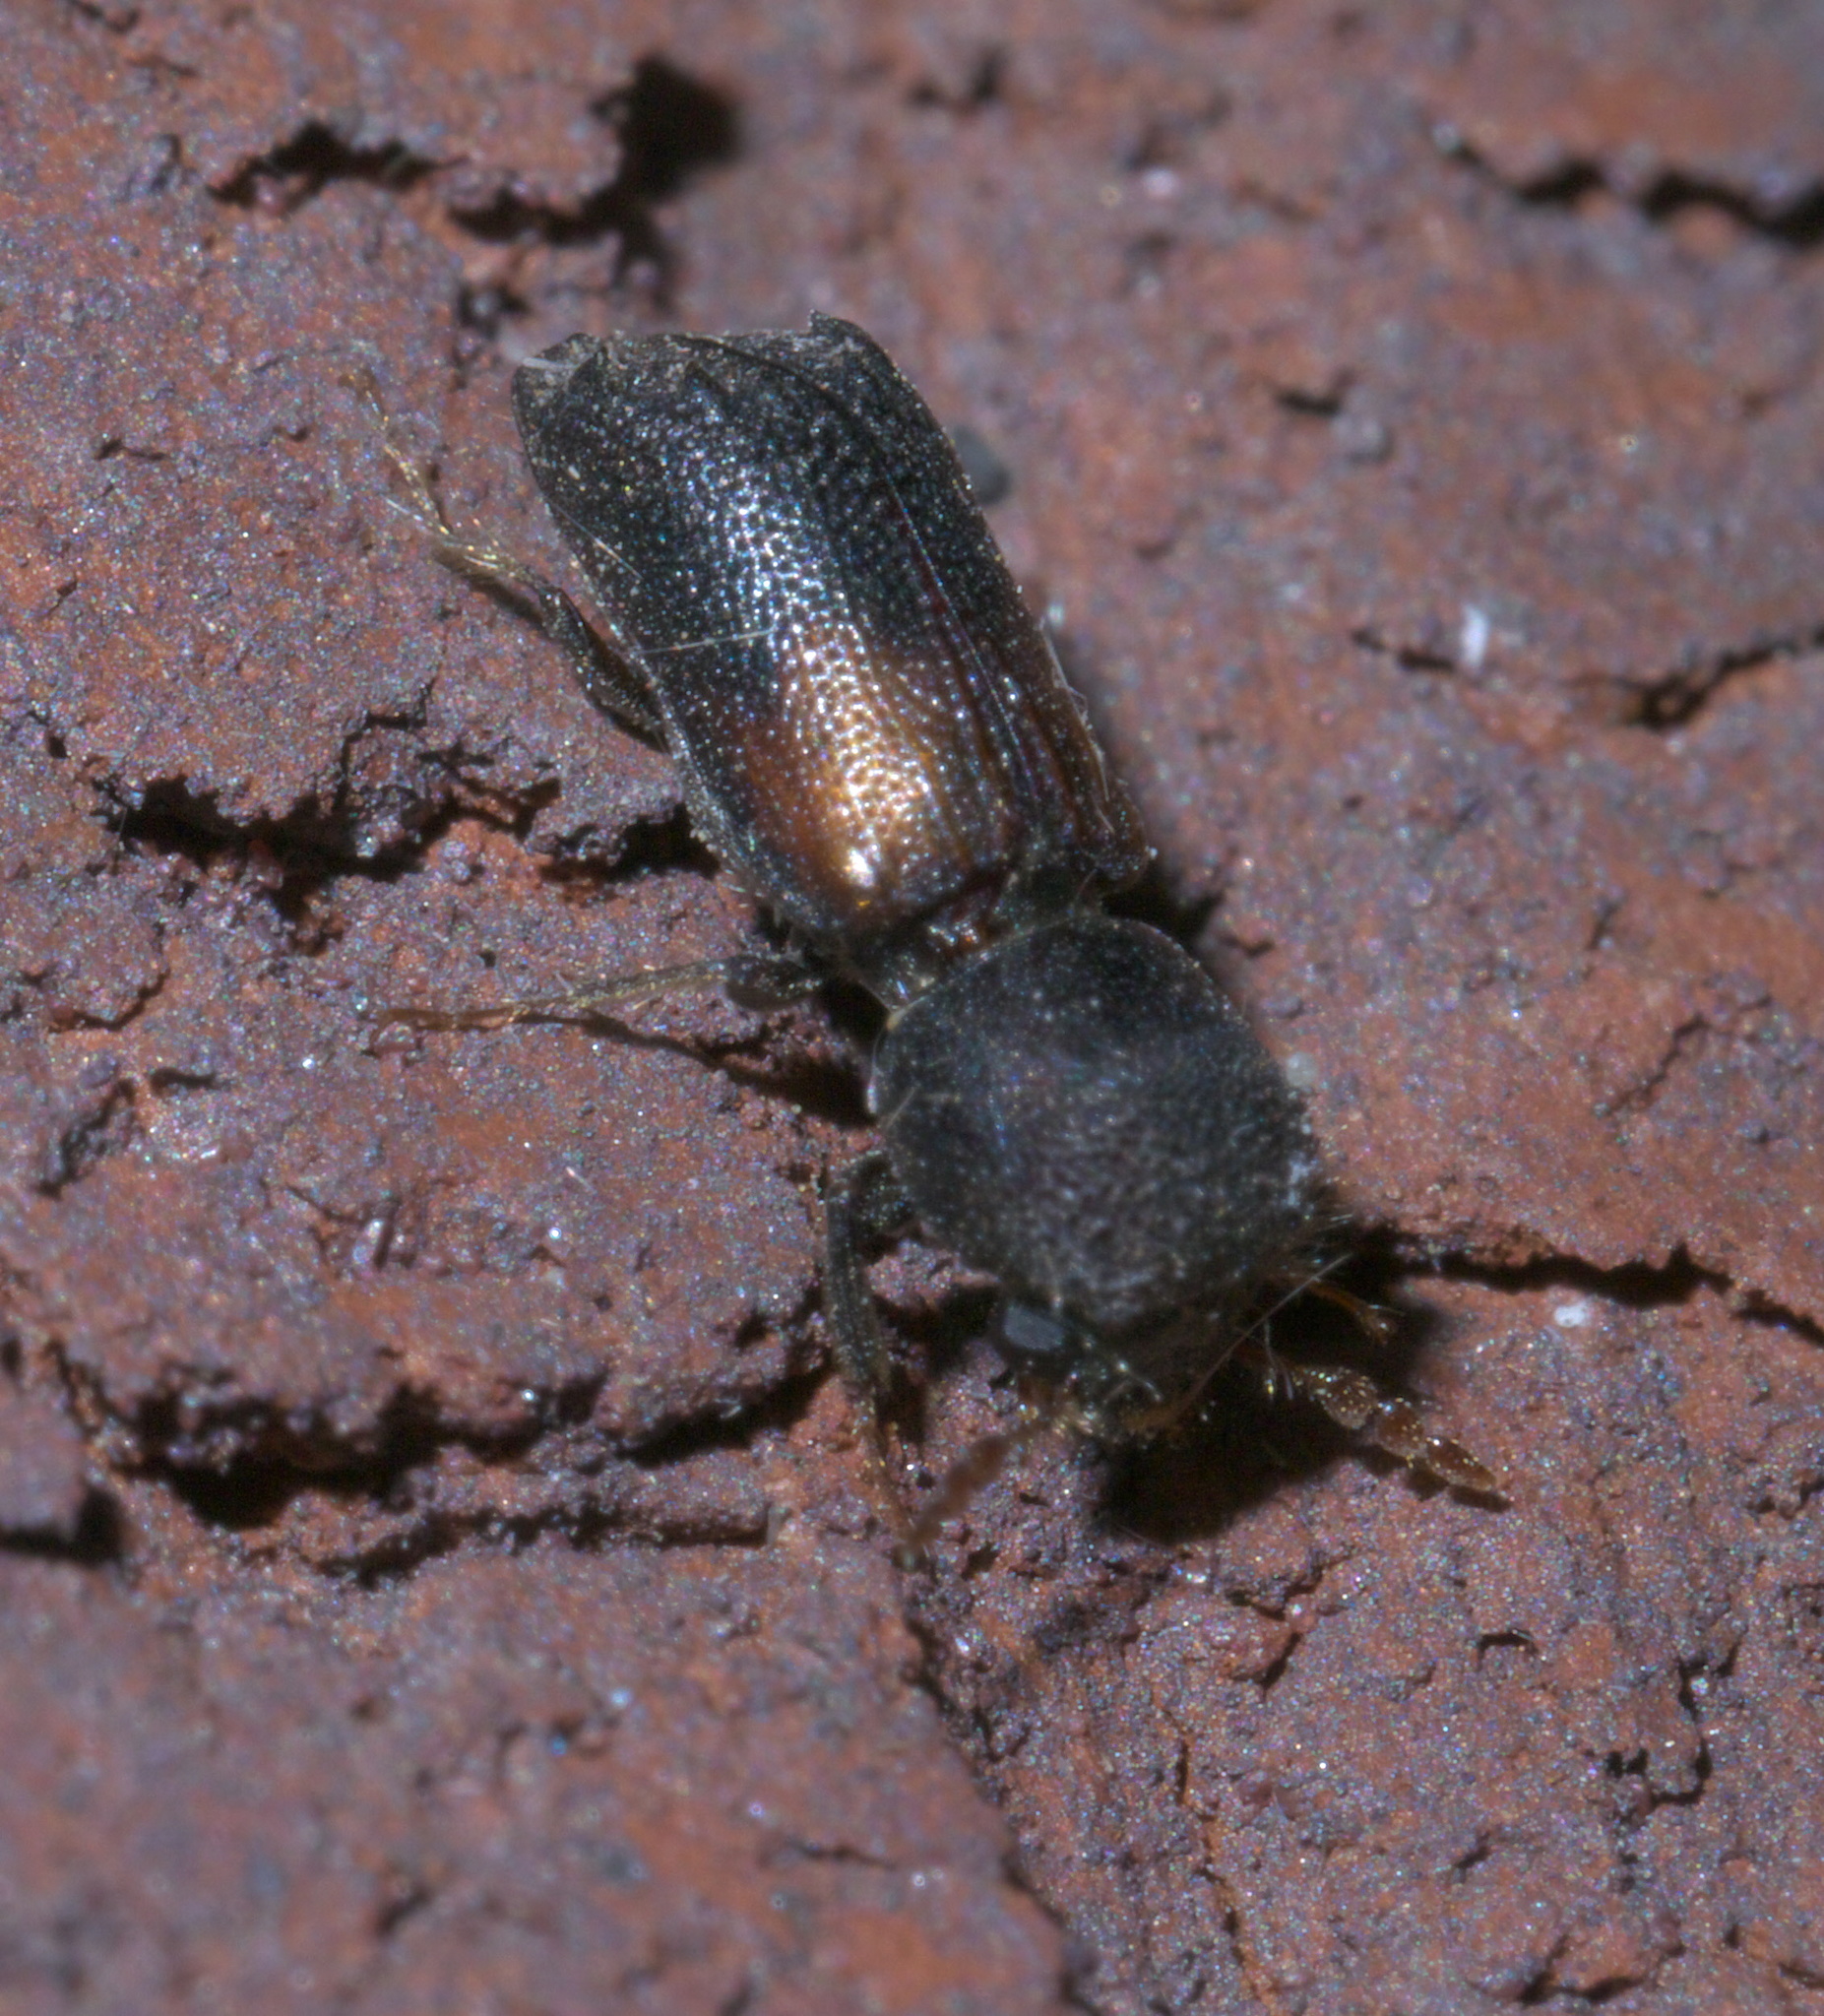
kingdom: Animalia
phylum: Arthropoda
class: Insecta
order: Coleoptera
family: Bostrichidae
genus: Xylobiops
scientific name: Xylobiops basilaris
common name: Red-shouldered bostrichid
